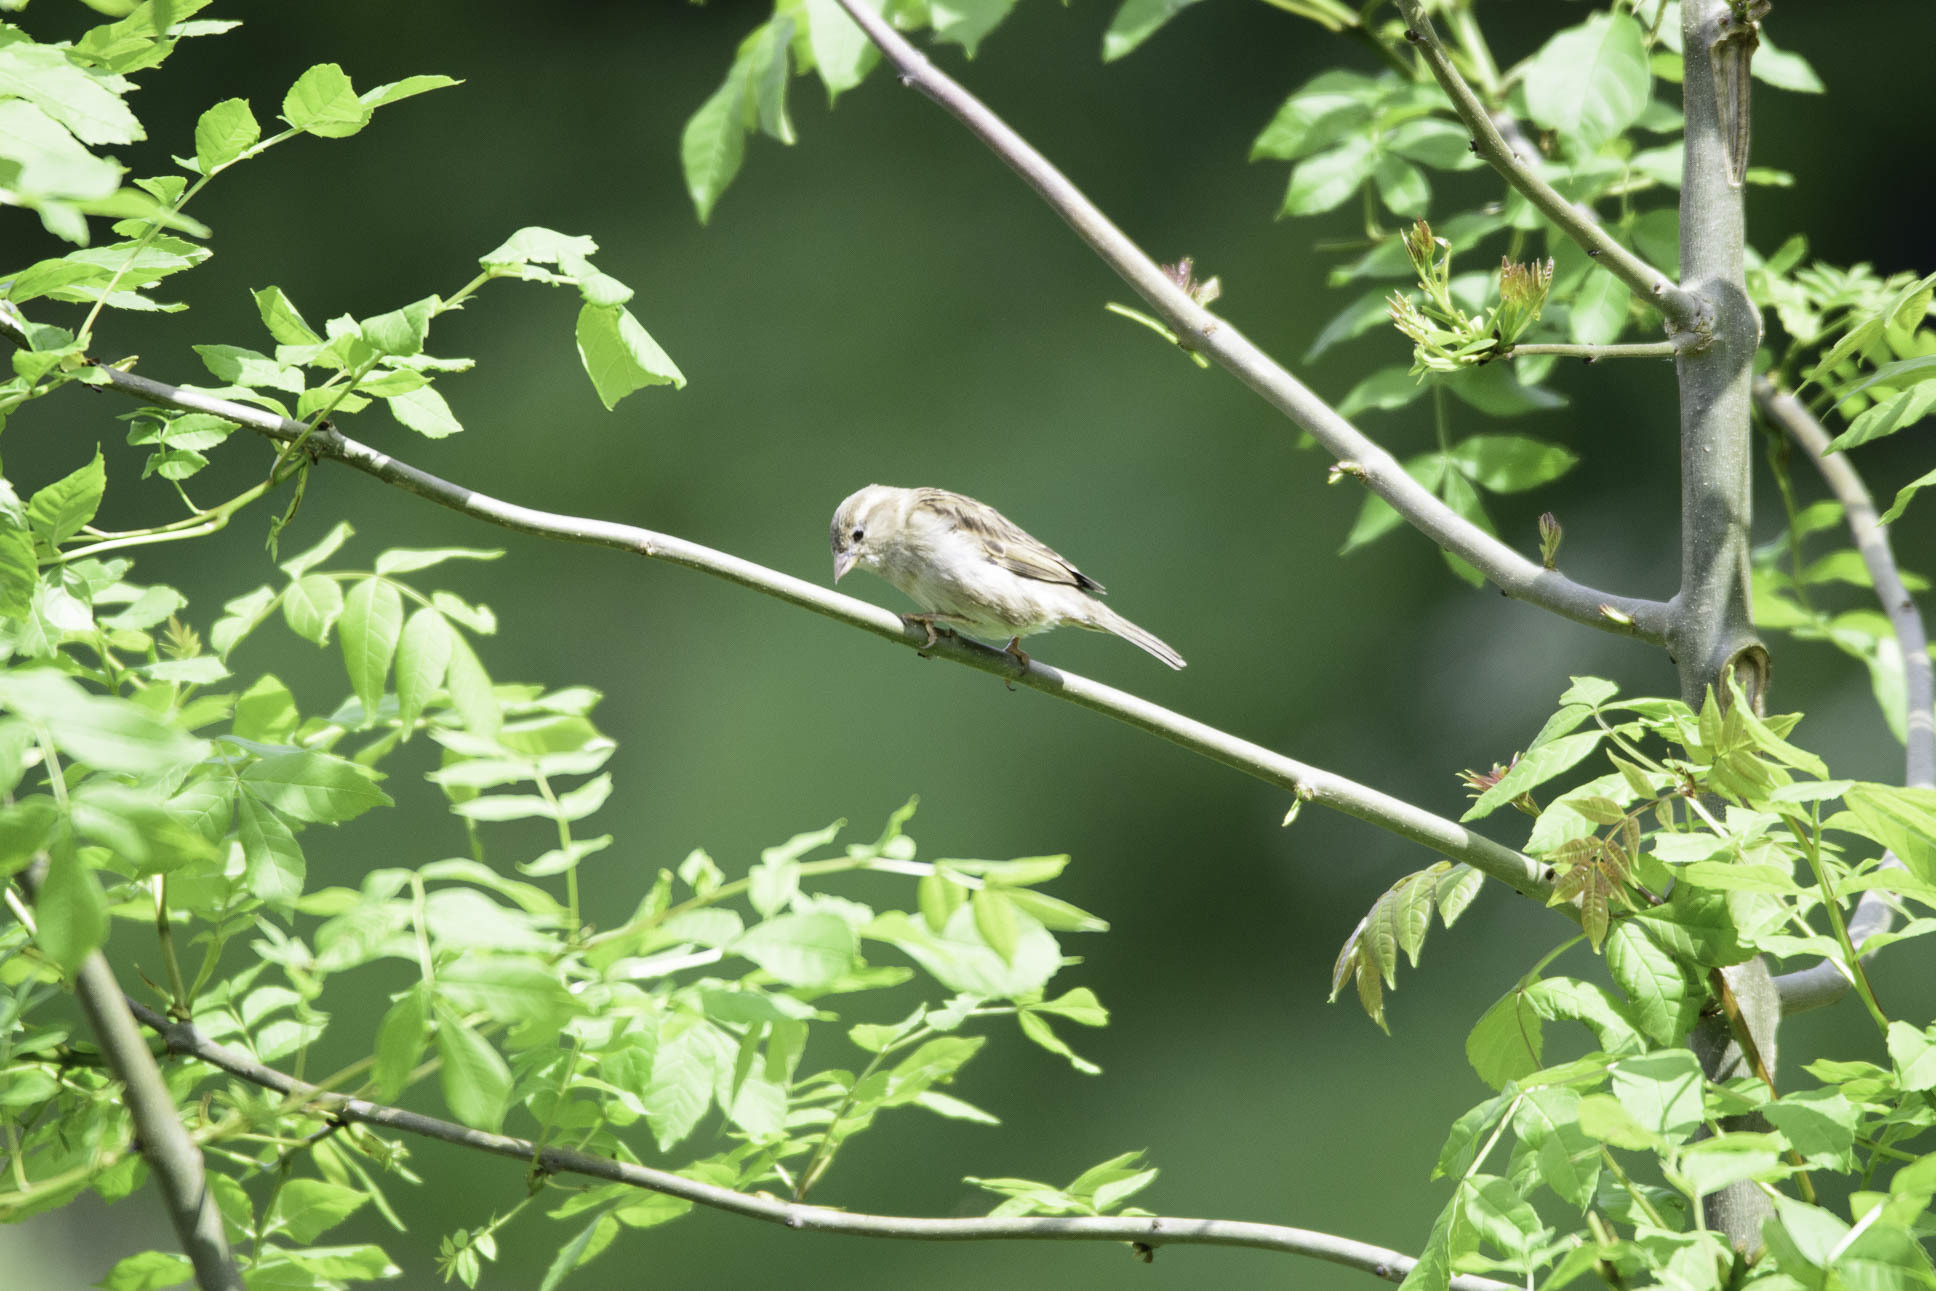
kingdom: Animalia
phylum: Chordata
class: Aves
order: Passeriformes
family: Passeridae
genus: Passer
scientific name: Passer domesticus
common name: House sparrow
